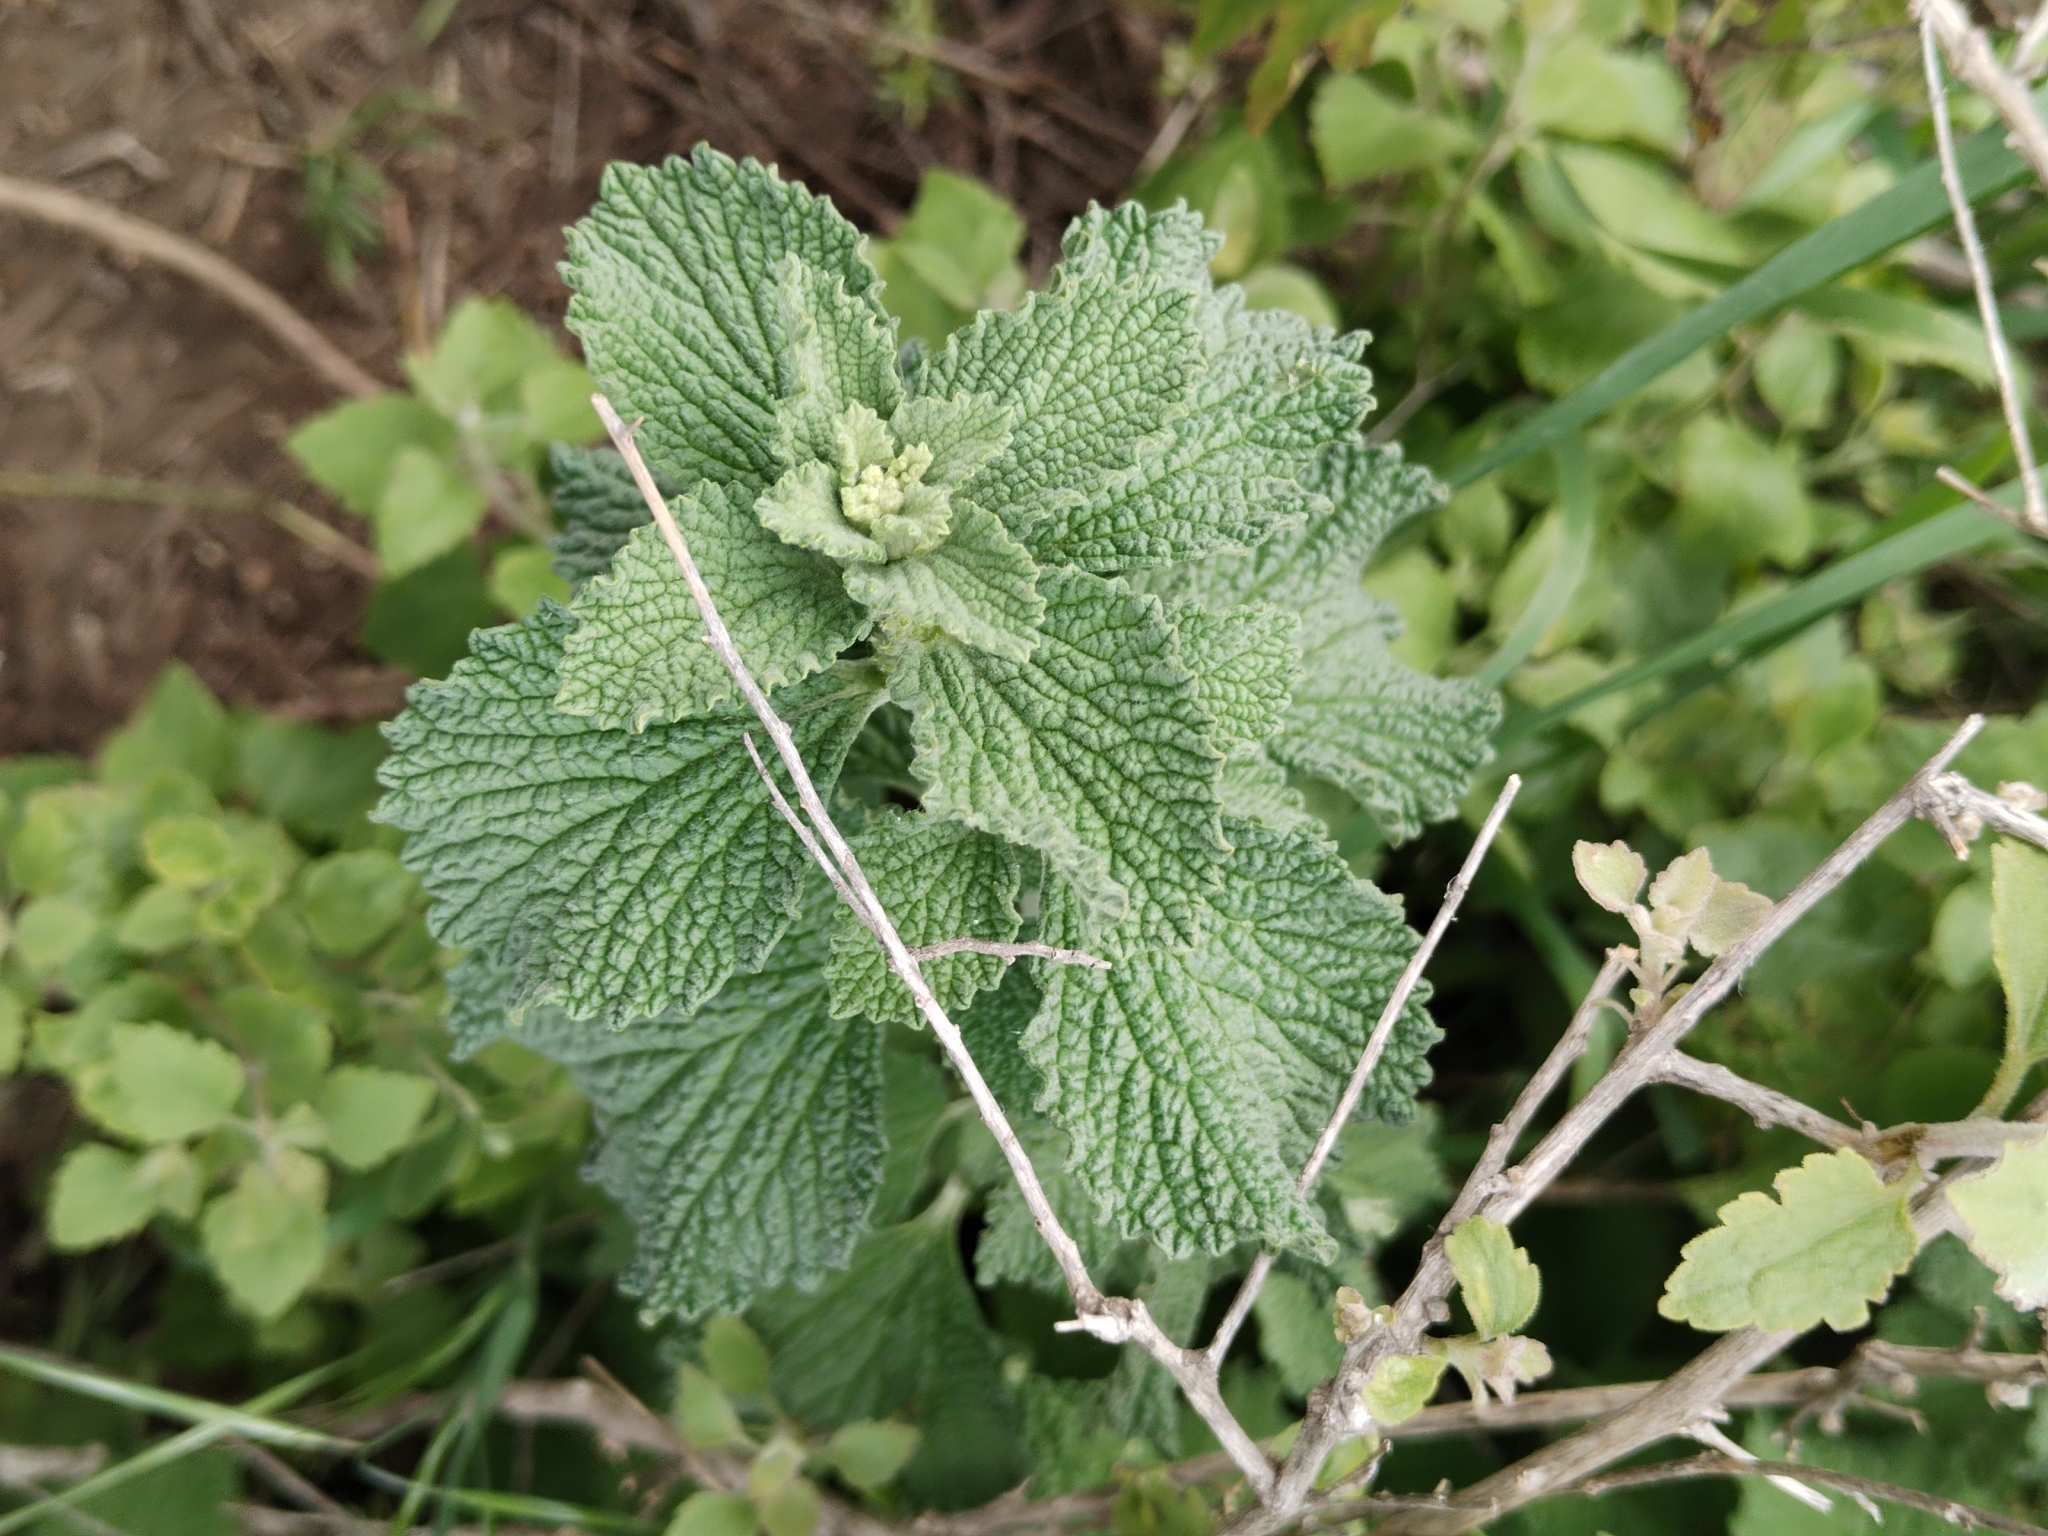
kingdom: Plantae
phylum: Tracheophyta
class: Magnoliopsida
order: Lamiales
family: Lamiaceae
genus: Marrubium
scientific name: Marrubium vulgare
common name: Horehound
